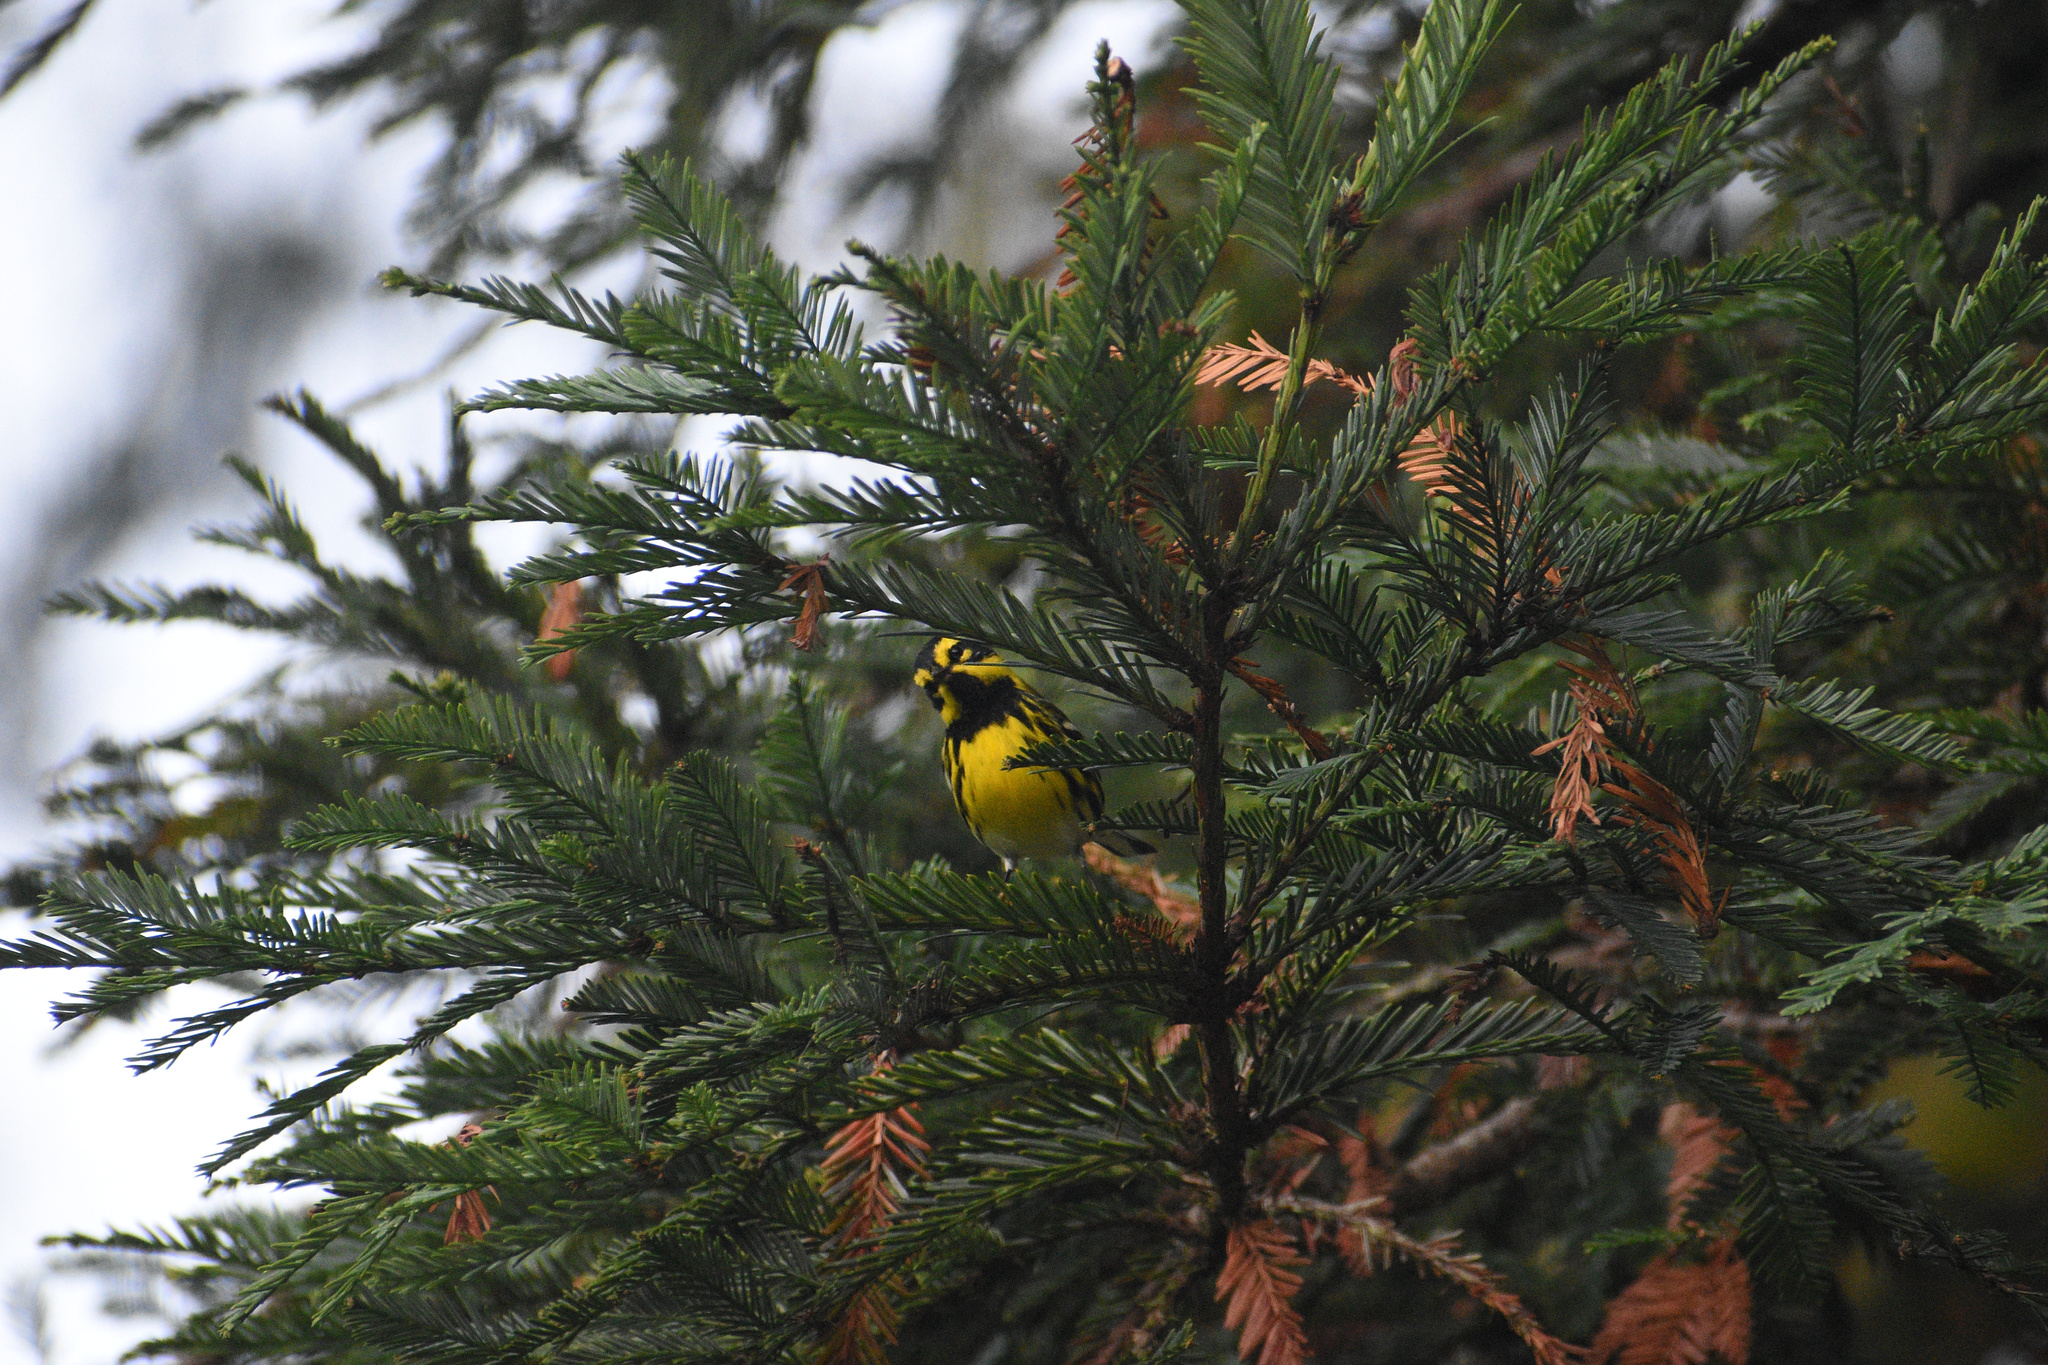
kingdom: Animalia
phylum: Chordata
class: Aves
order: Passeriformes
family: Parulidae
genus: Setophaga
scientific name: Setophaga townsendi
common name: Townsend's warbler
